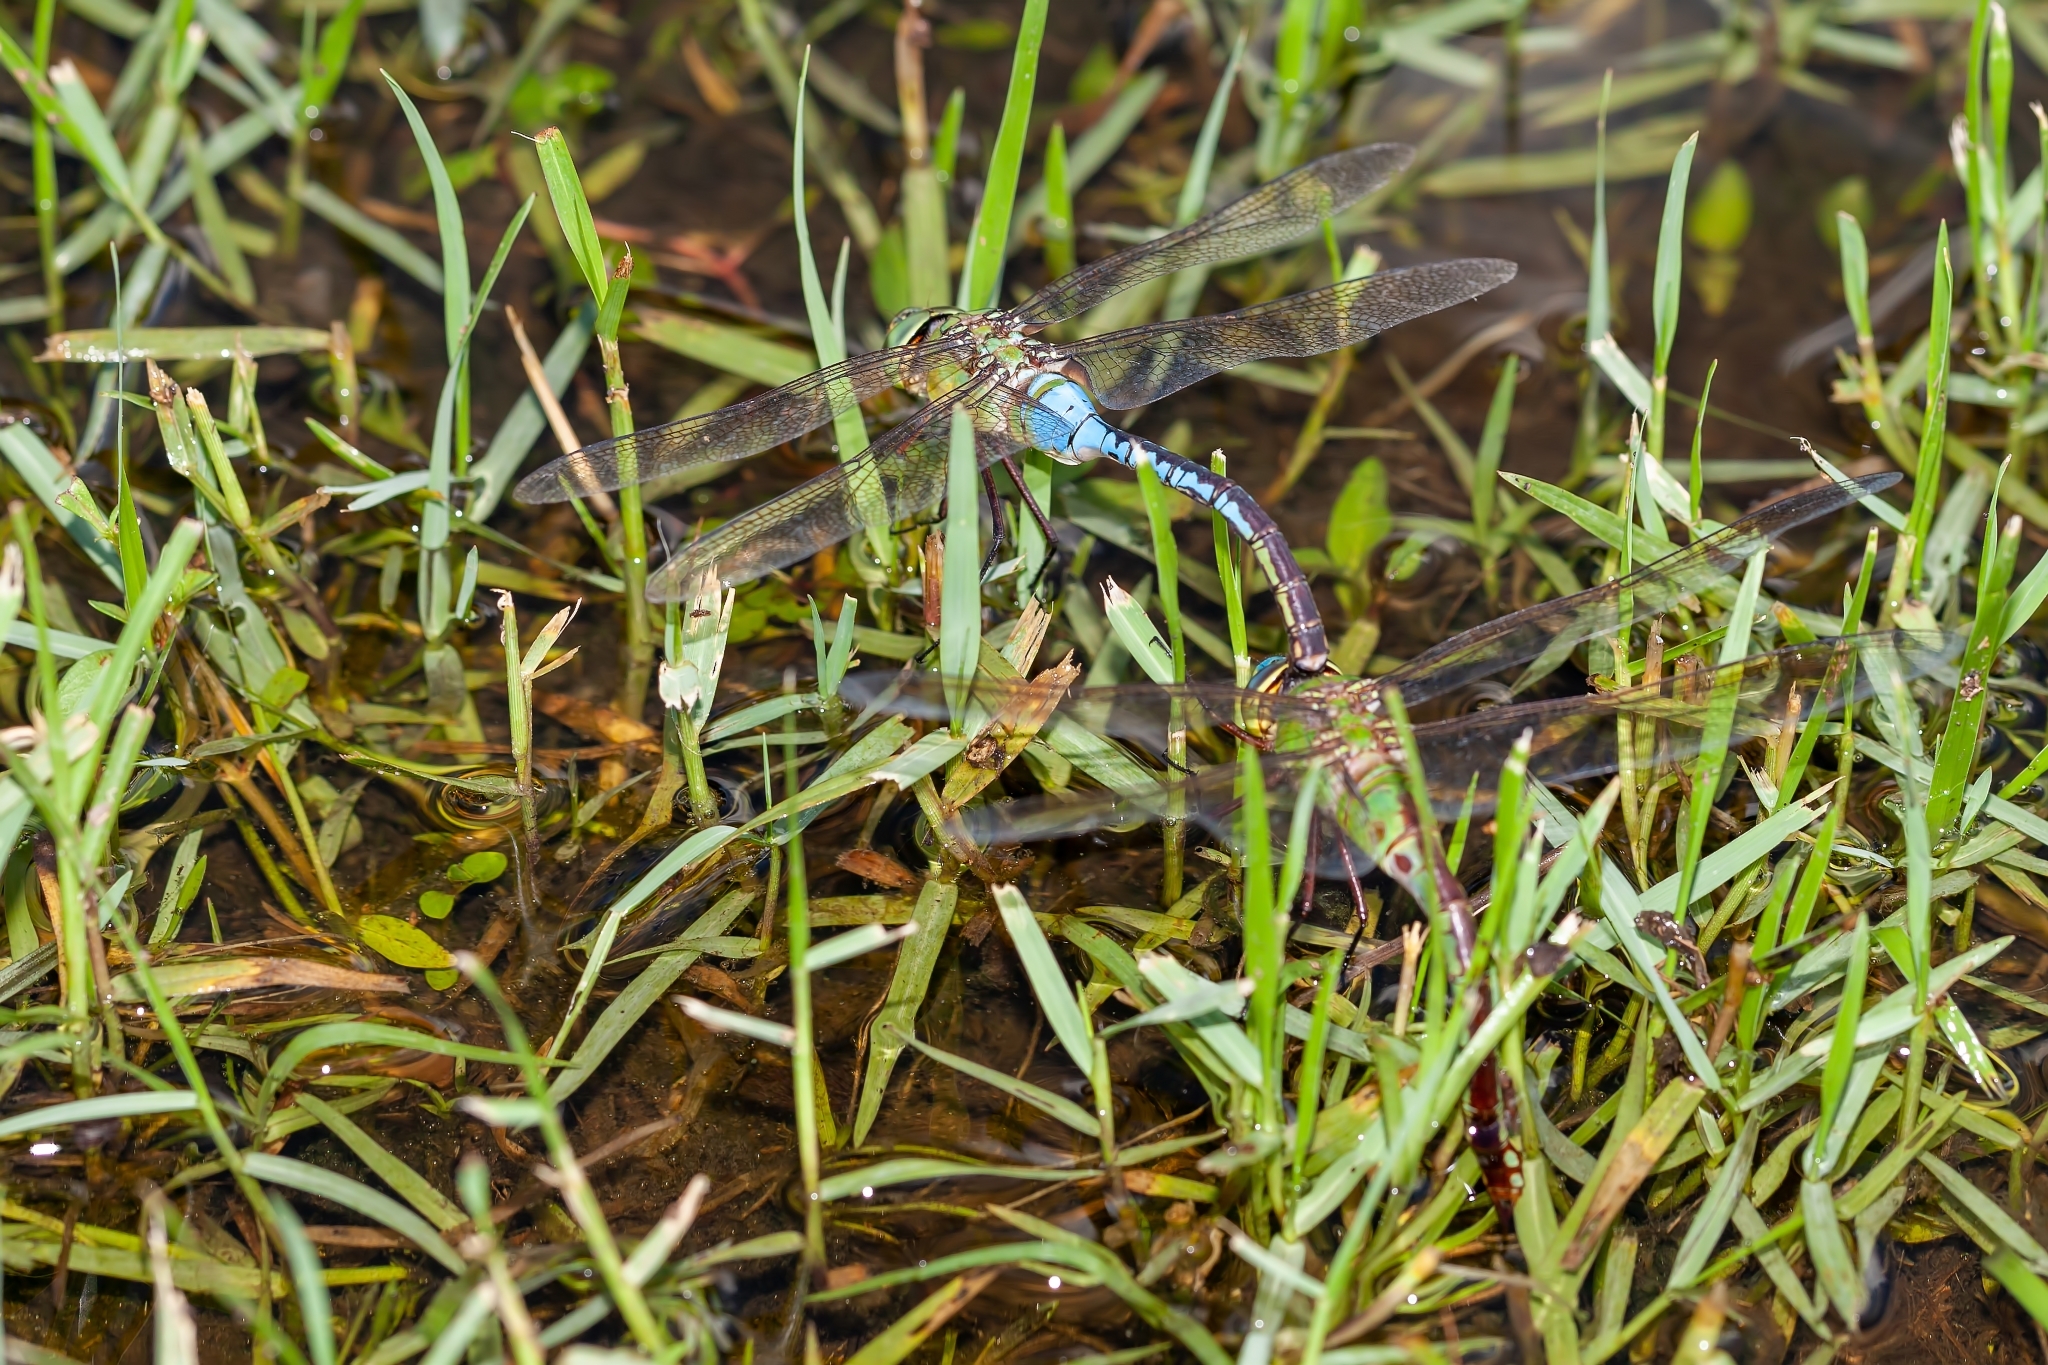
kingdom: Animalia
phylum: Arthropoda
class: Insecta
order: Odonata
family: Aeshnidae
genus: Anax
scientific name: Anax junius
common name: Common green darner
